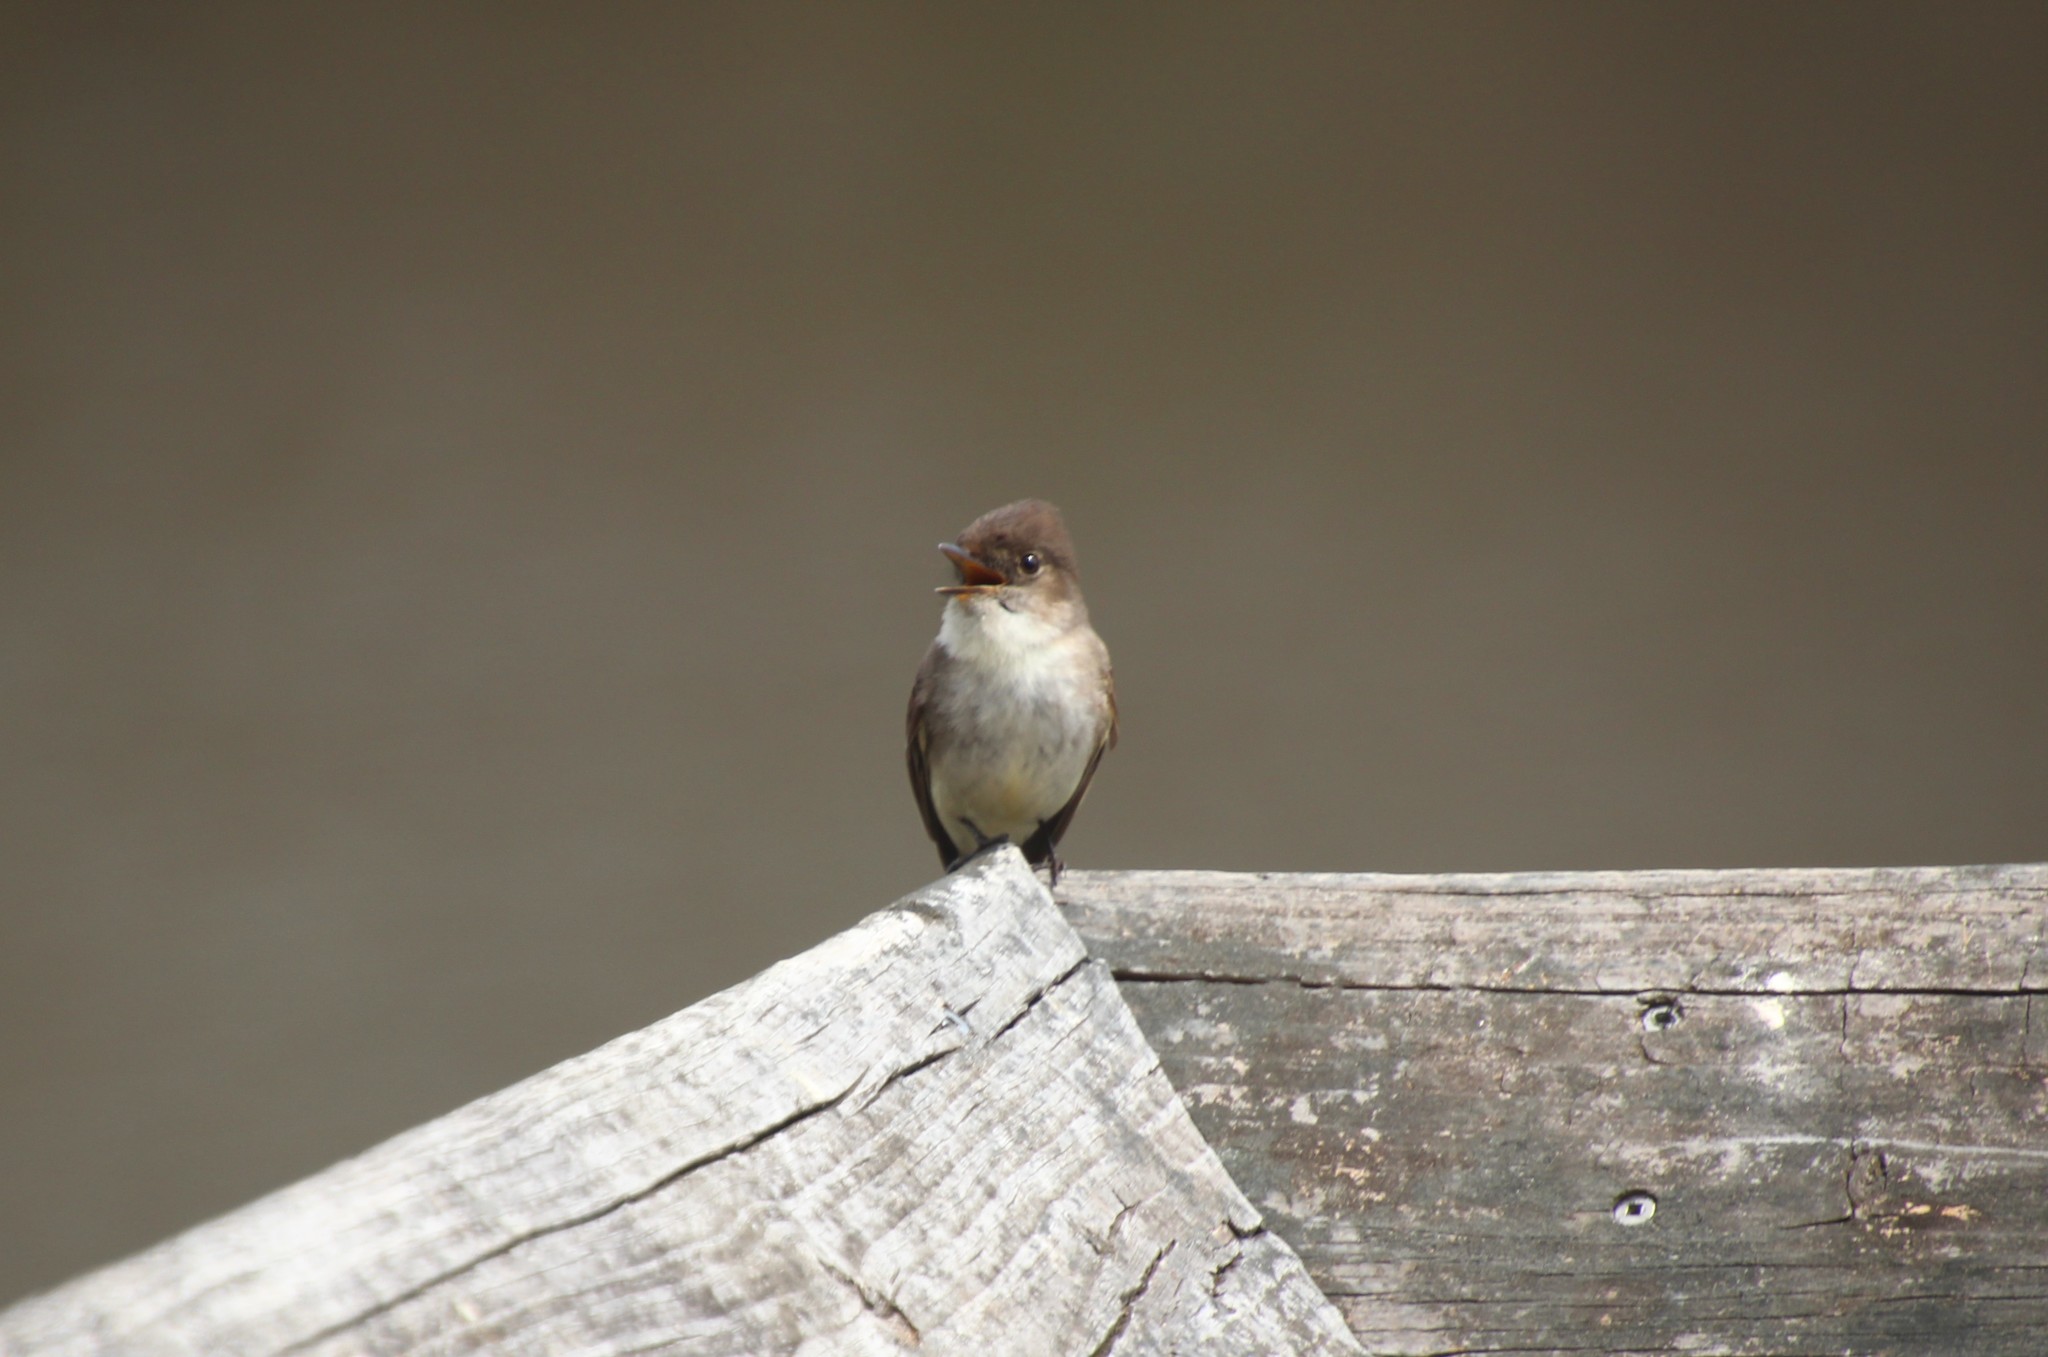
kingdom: Animalia
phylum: Chordata
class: Aves
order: Passeriformes
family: Tyrannidae
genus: Sayornis
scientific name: Sayornis phoebe
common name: Eastern phoebe
